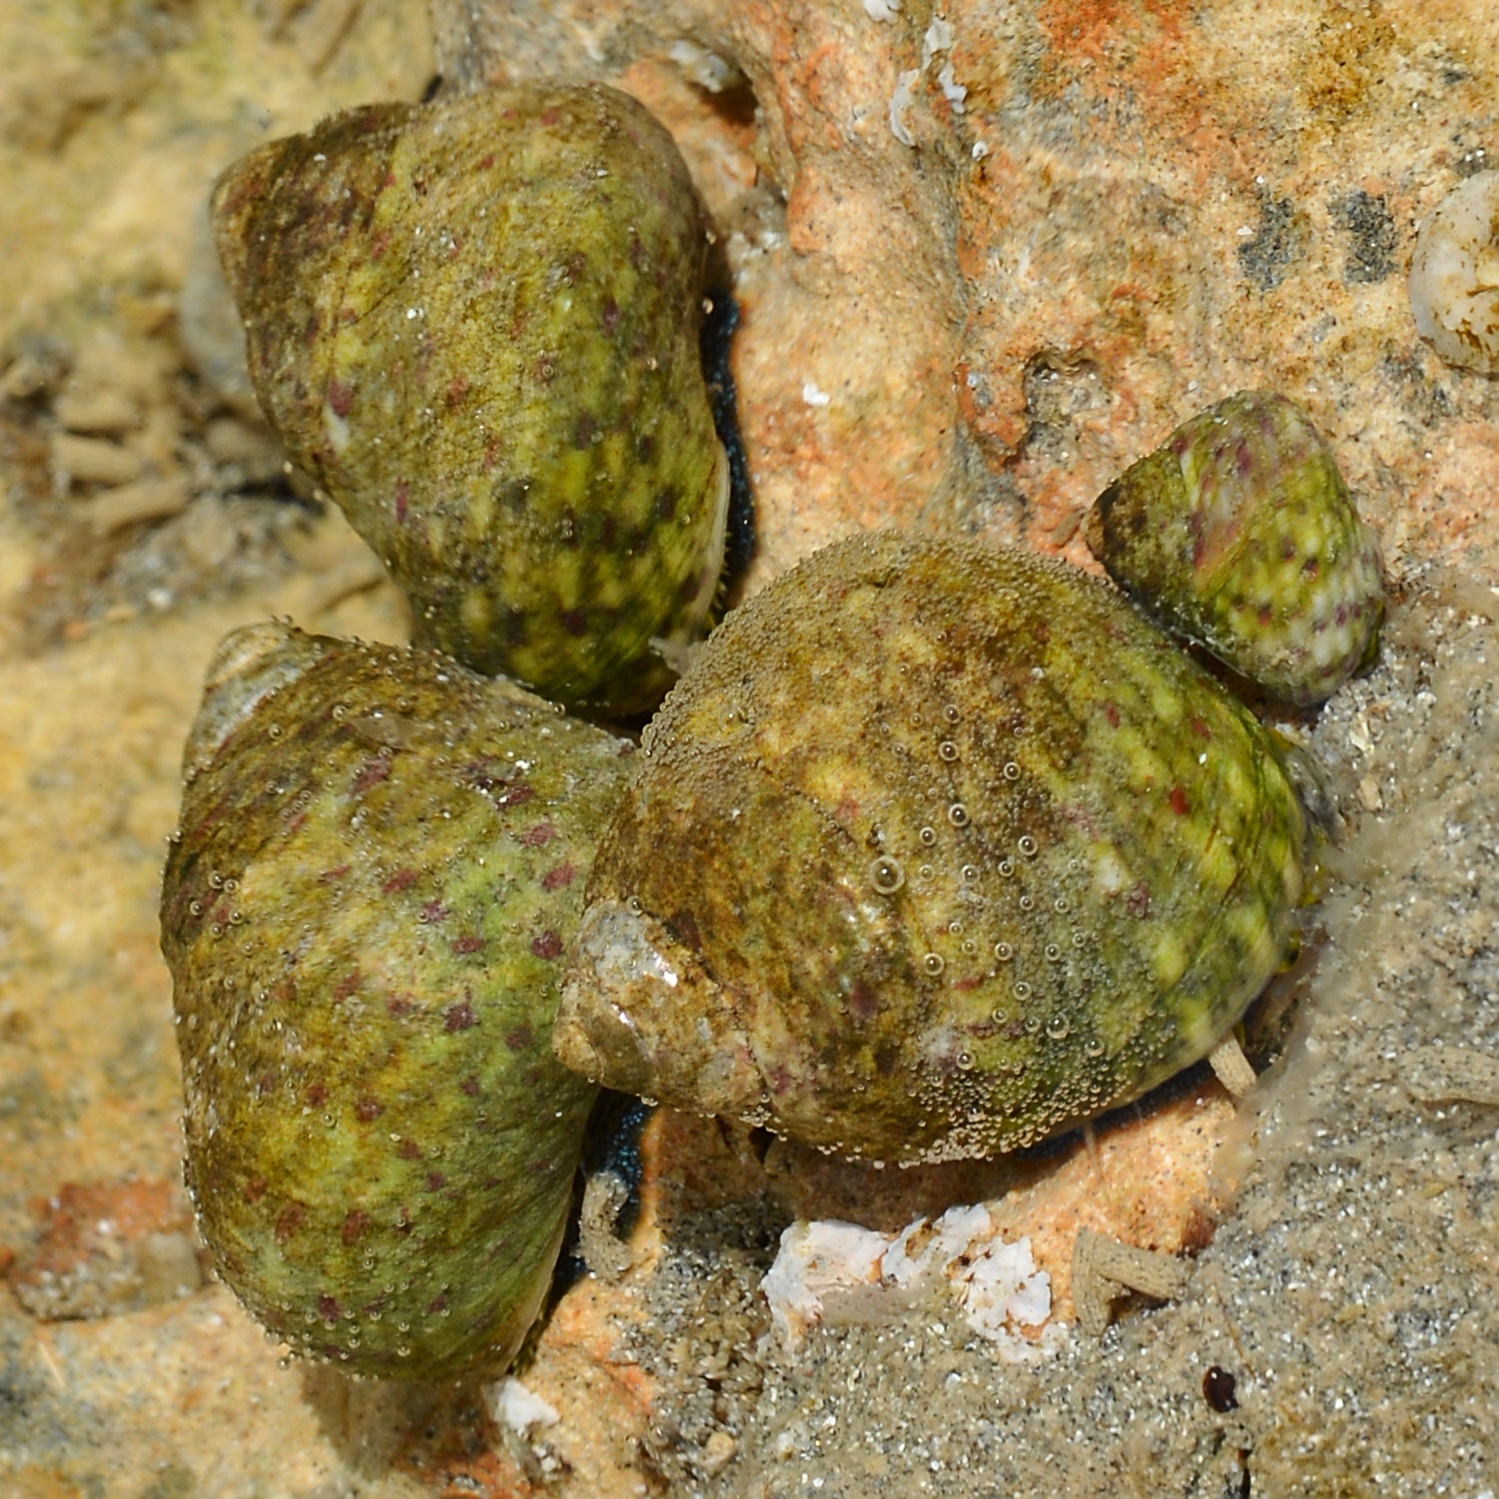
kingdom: Animalia
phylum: Mollusca
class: Gastropoda
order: Trochida
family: Trochidae
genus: Phorcus
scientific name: Phorcus articulatus
